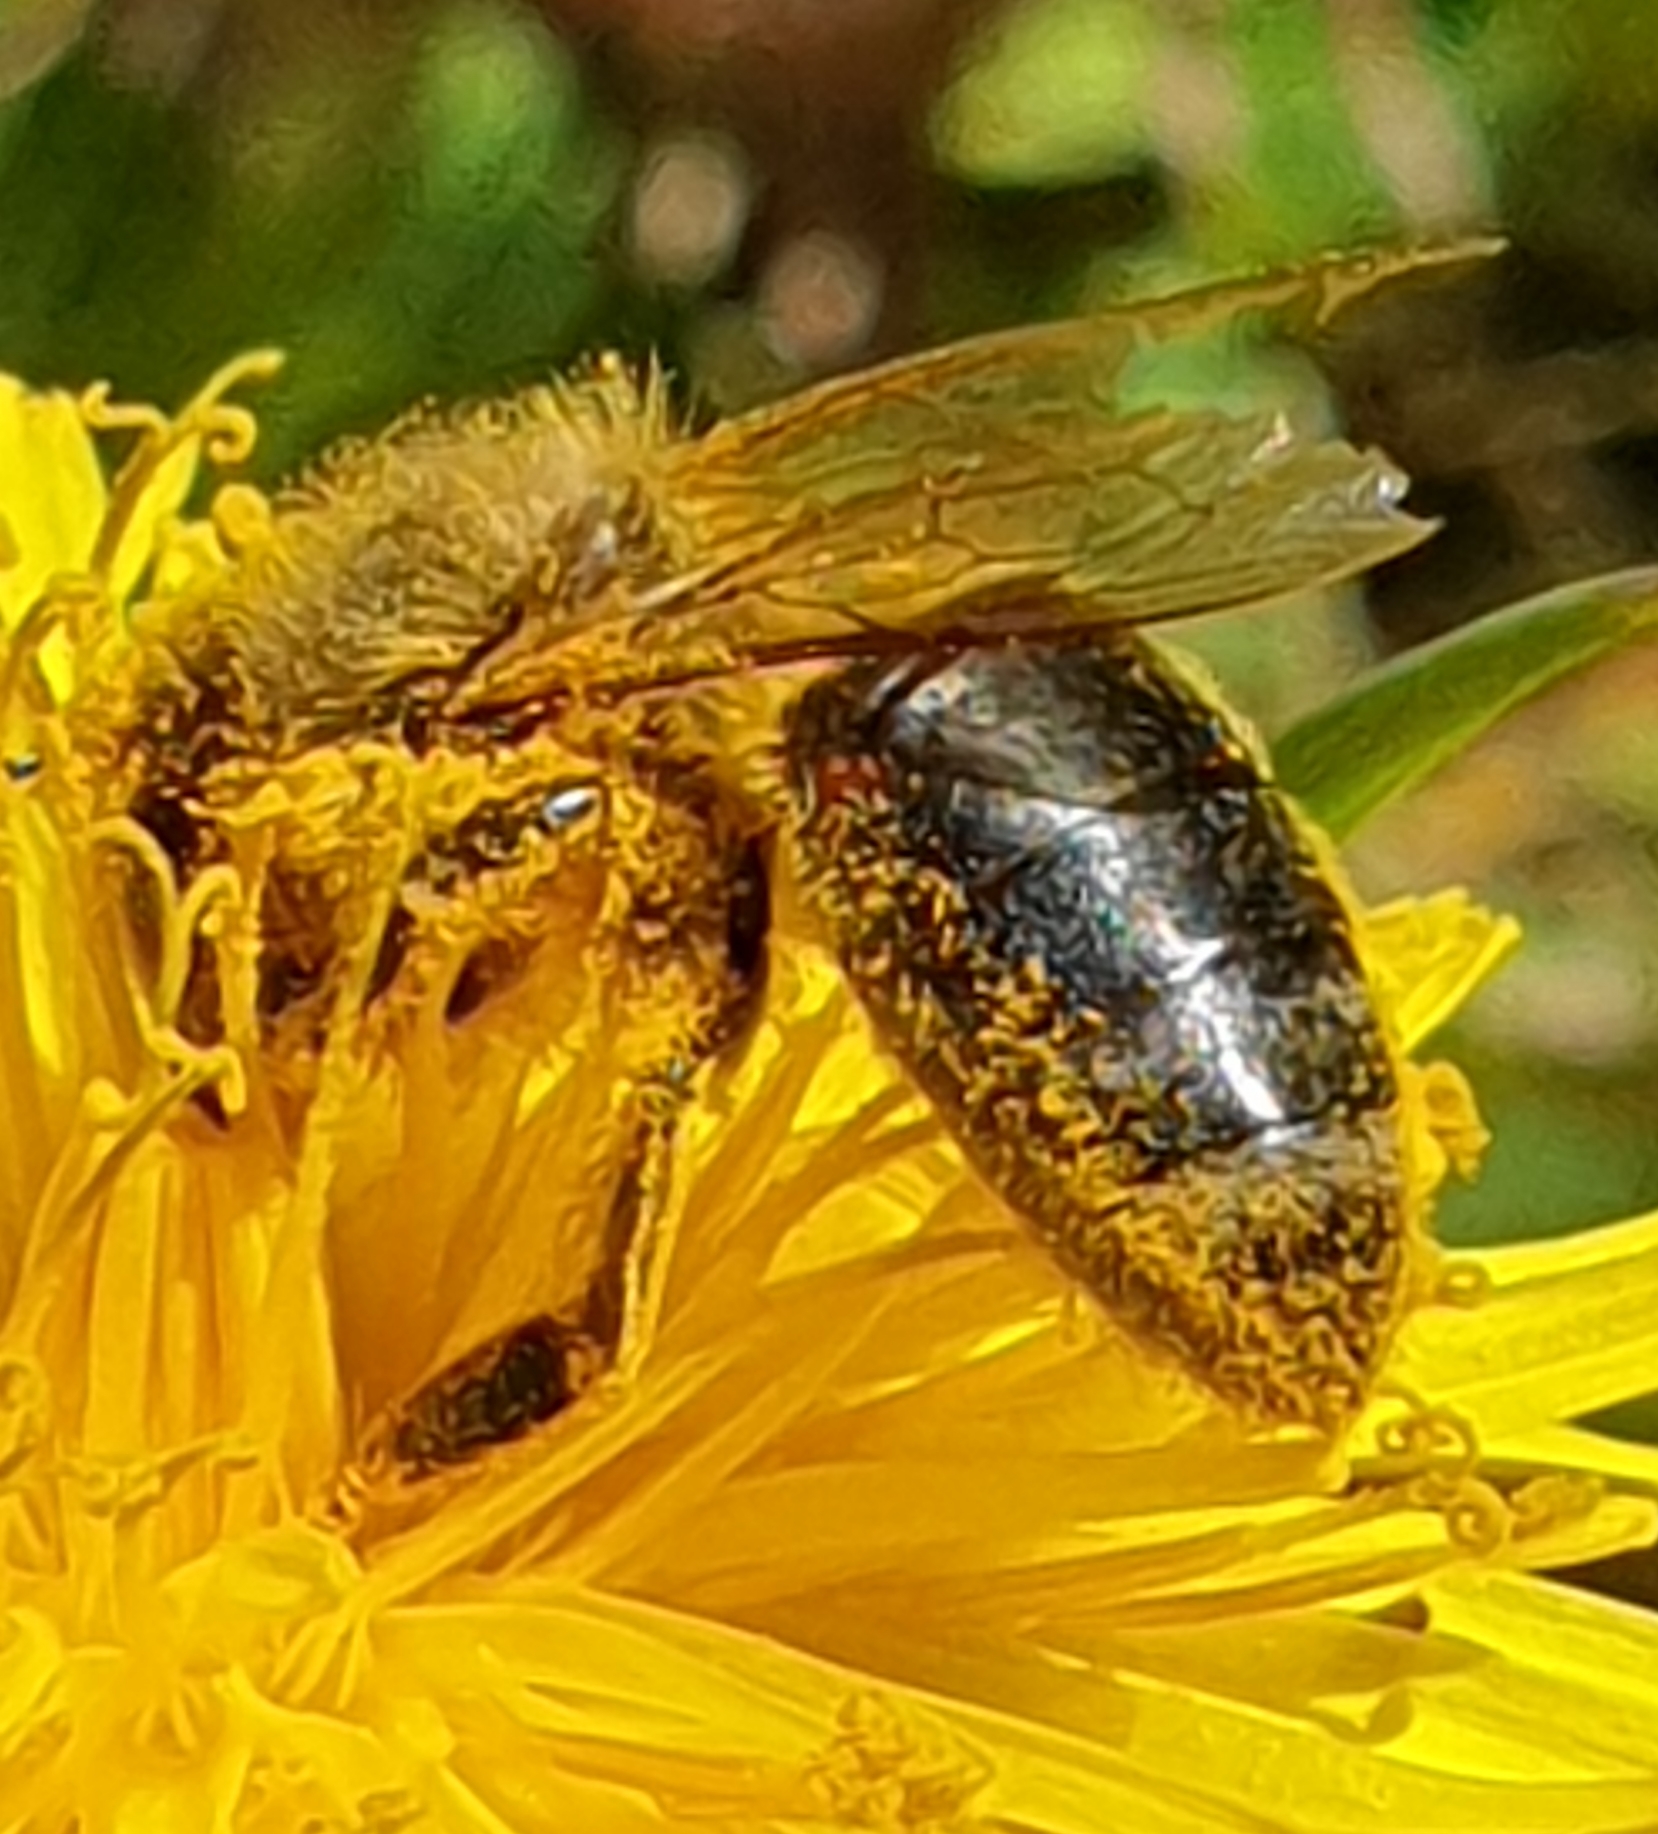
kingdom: Animalia
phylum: Arthropoda
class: Insecta
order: Hymenoptera
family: Apidae
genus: Apis
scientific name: Apis mellifera
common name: Honey bee
